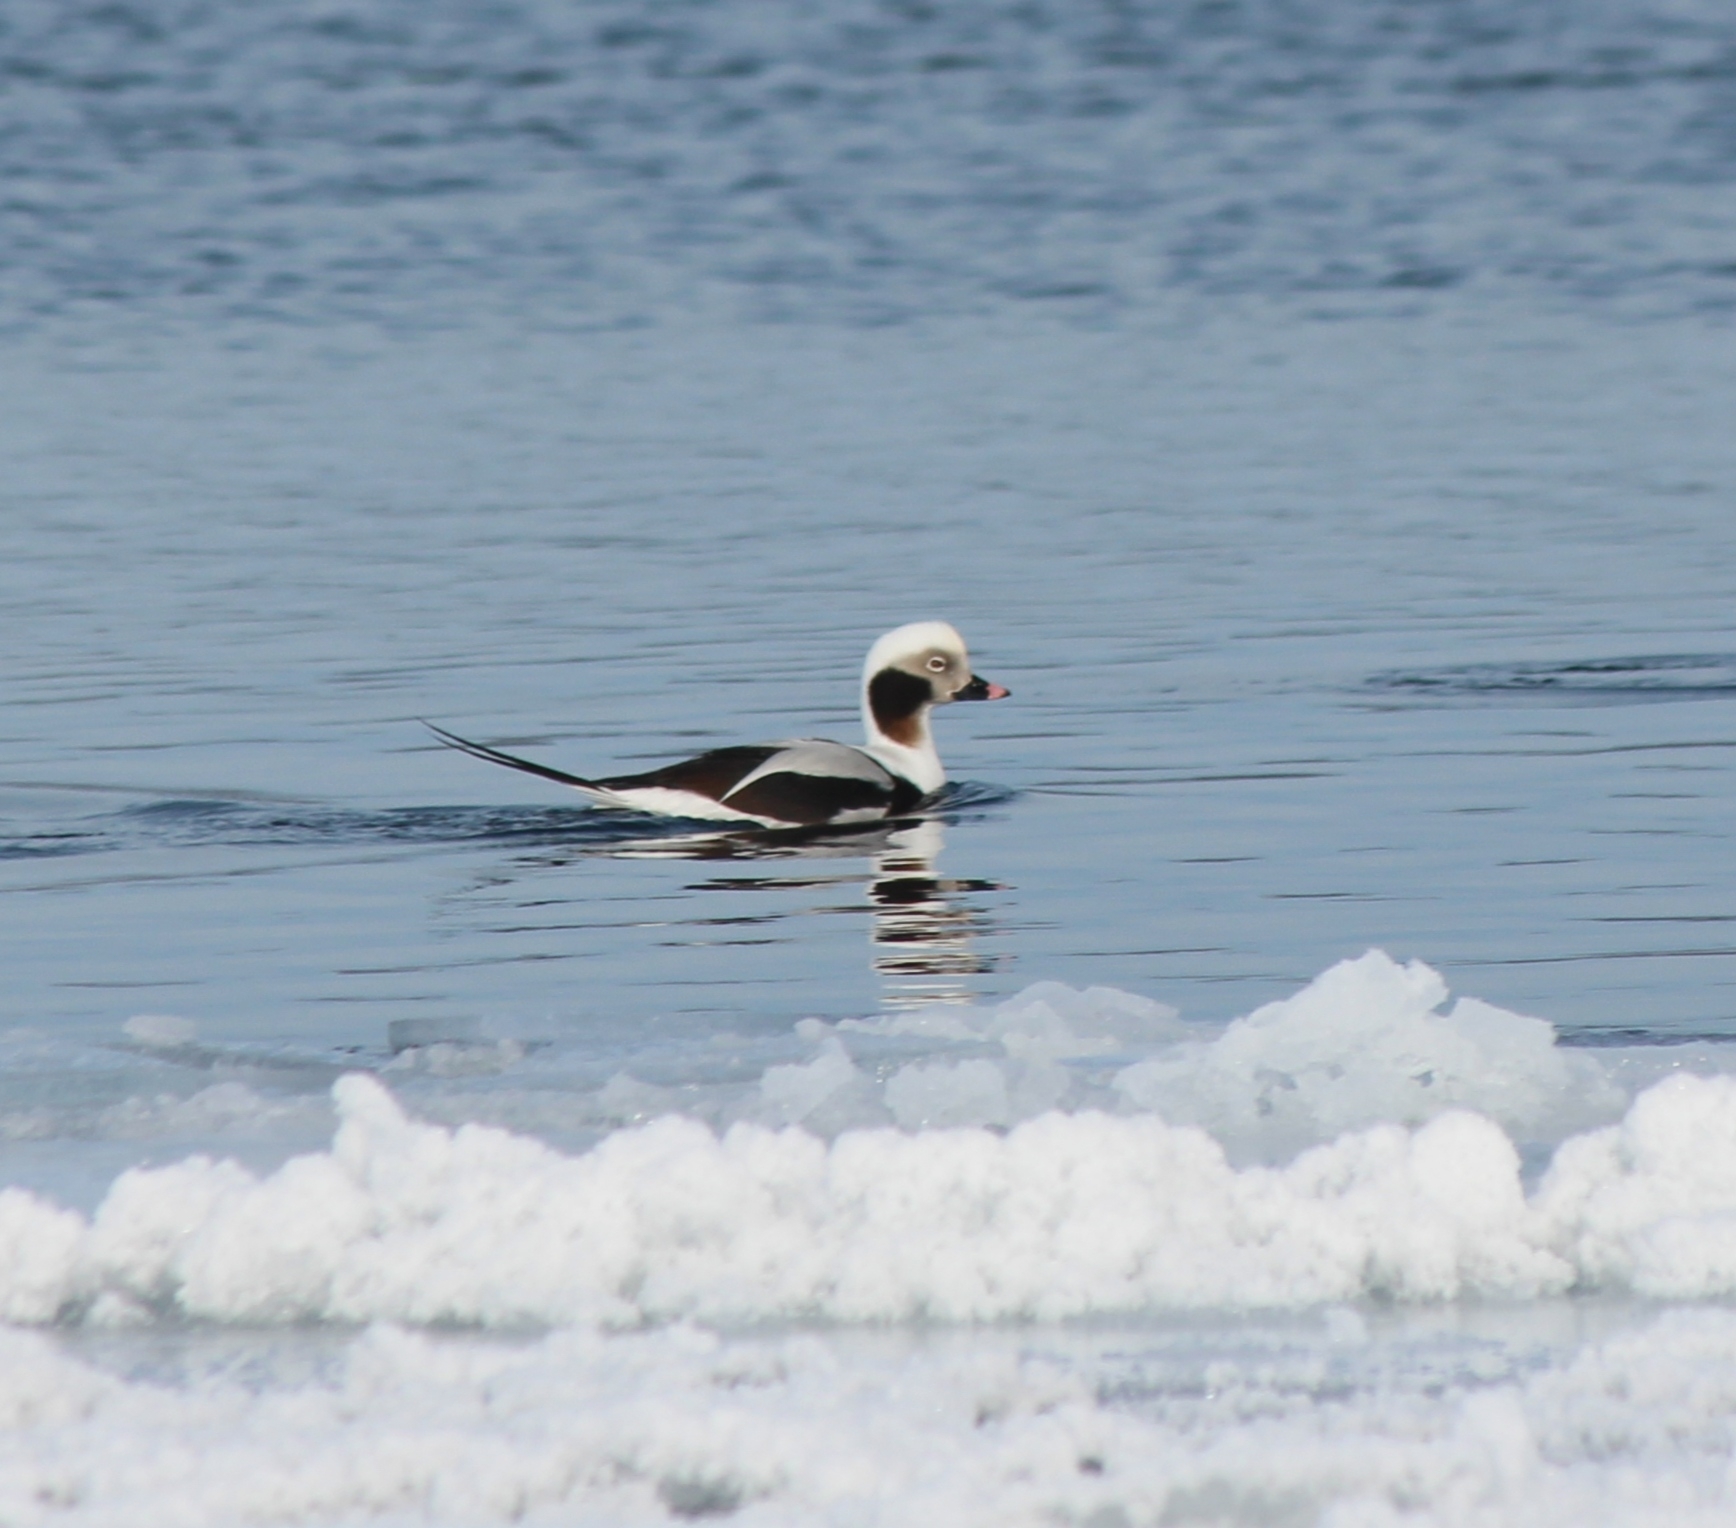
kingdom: Animalia
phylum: Chordata
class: Aves
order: Anseriformes
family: Anatidae
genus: Clangula
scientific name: Clangula hyemalis
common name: Long-tailed duck
